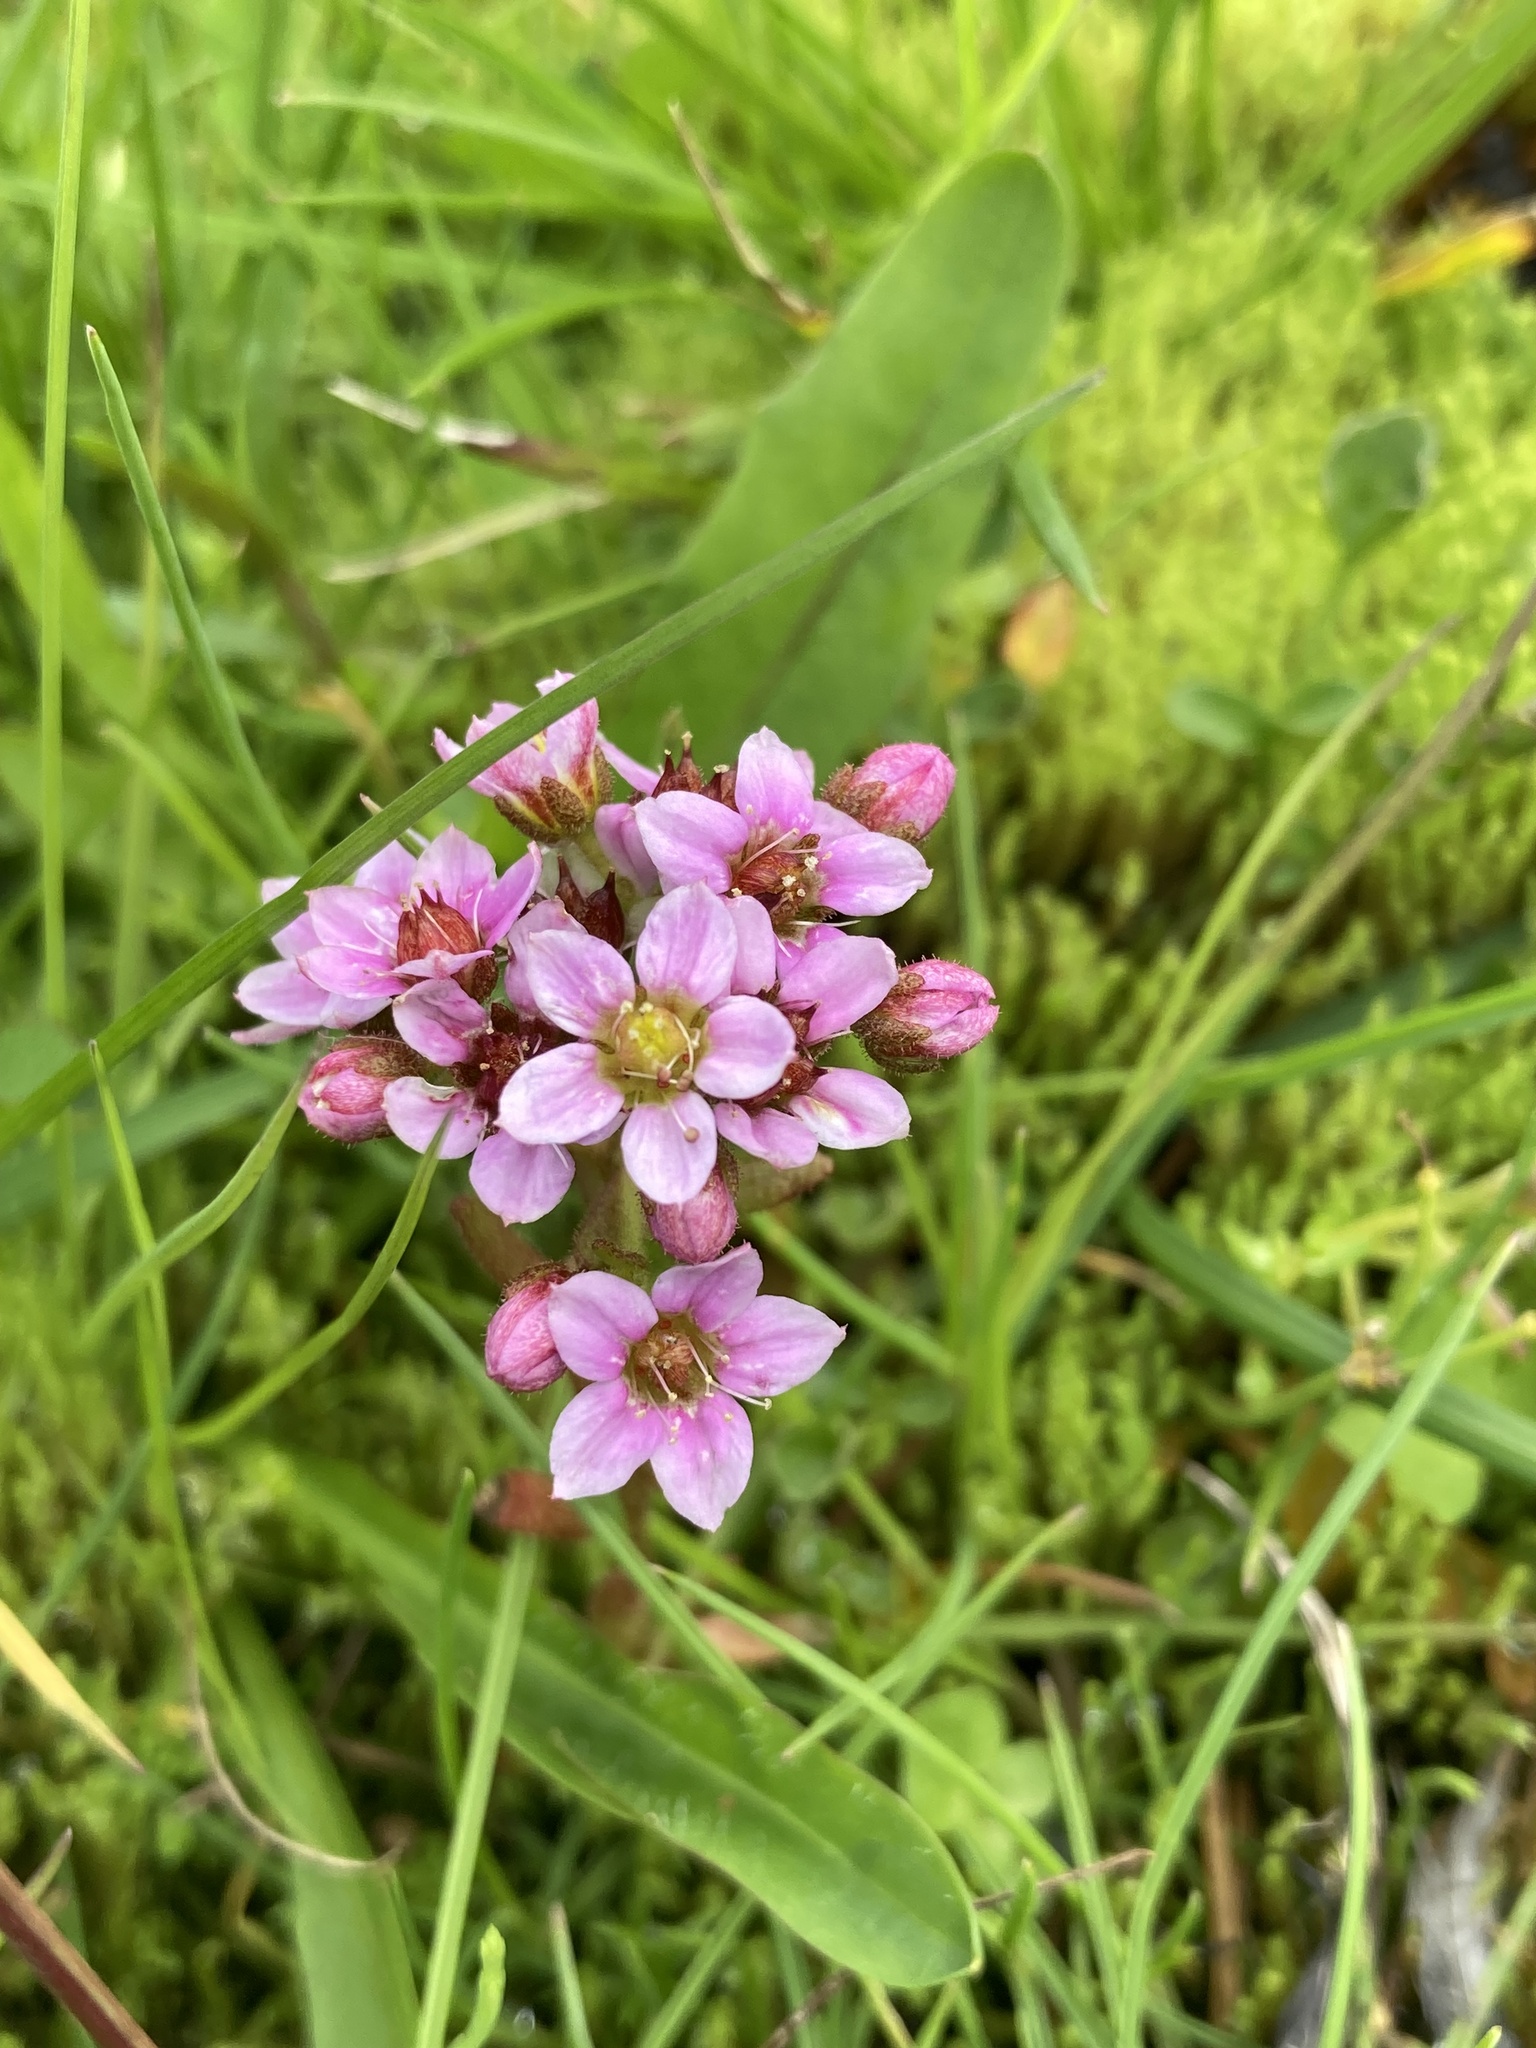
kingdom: Plantae
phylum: Tracheophyta
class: Magnoliopsida
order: Saxifragales
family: Crassulaceae
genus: Sedum
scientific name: Sedum villosum
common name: Hairy stonecrop
